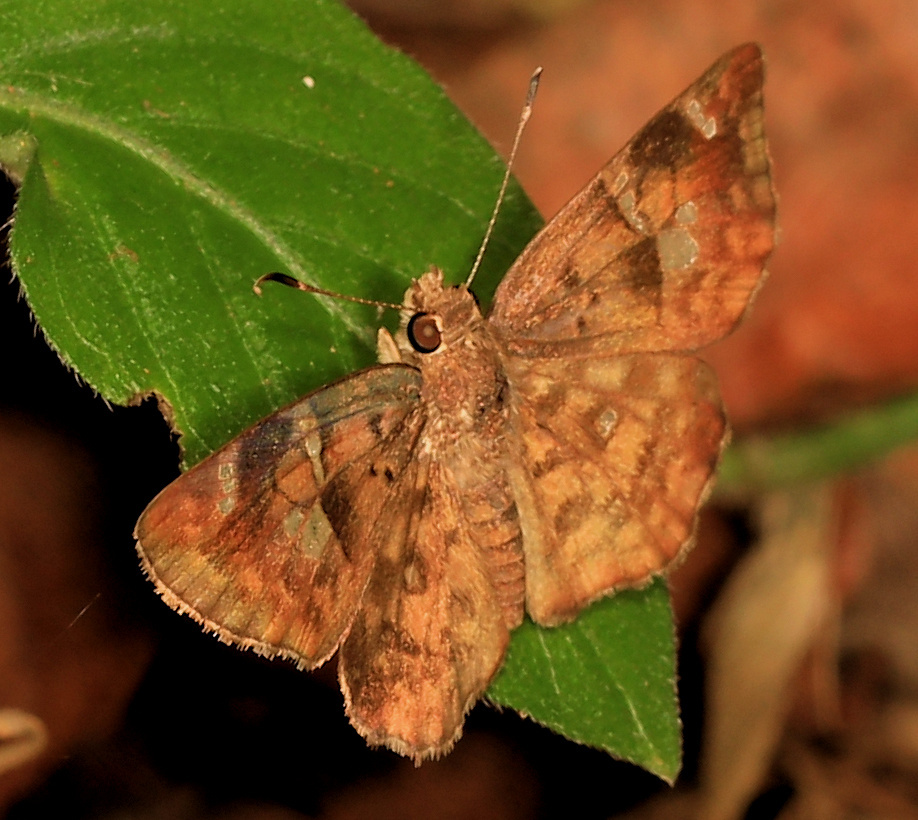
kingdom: Animalia
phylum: Arthropoda
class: Insecta
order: Lepidoptera
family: Hesperiidae
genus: Sarangesa
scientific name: Sarangesa motozi
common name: Forest elfin
